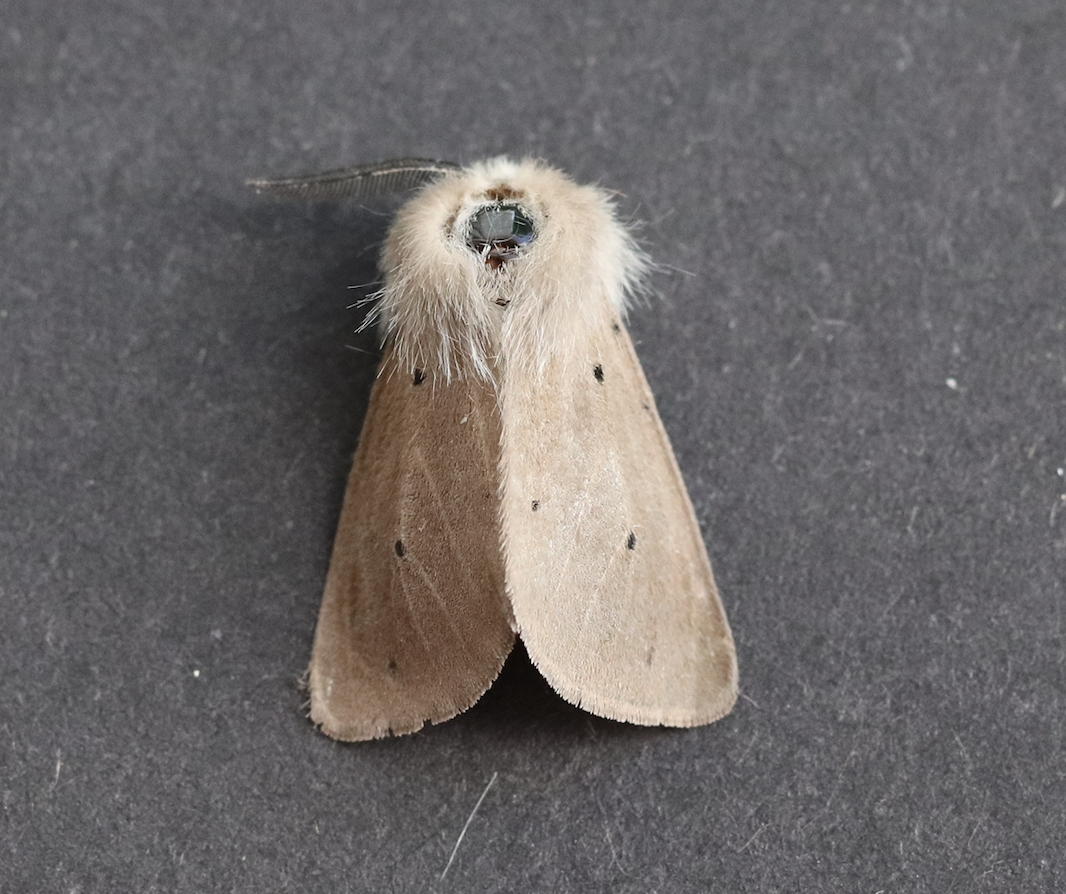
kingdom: Animalia
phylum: Arthropoda
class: Insecta
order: Lepidoptera
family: Erebidae
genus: Diaphora
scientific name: Diaphora mendica
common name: Muslin moth
